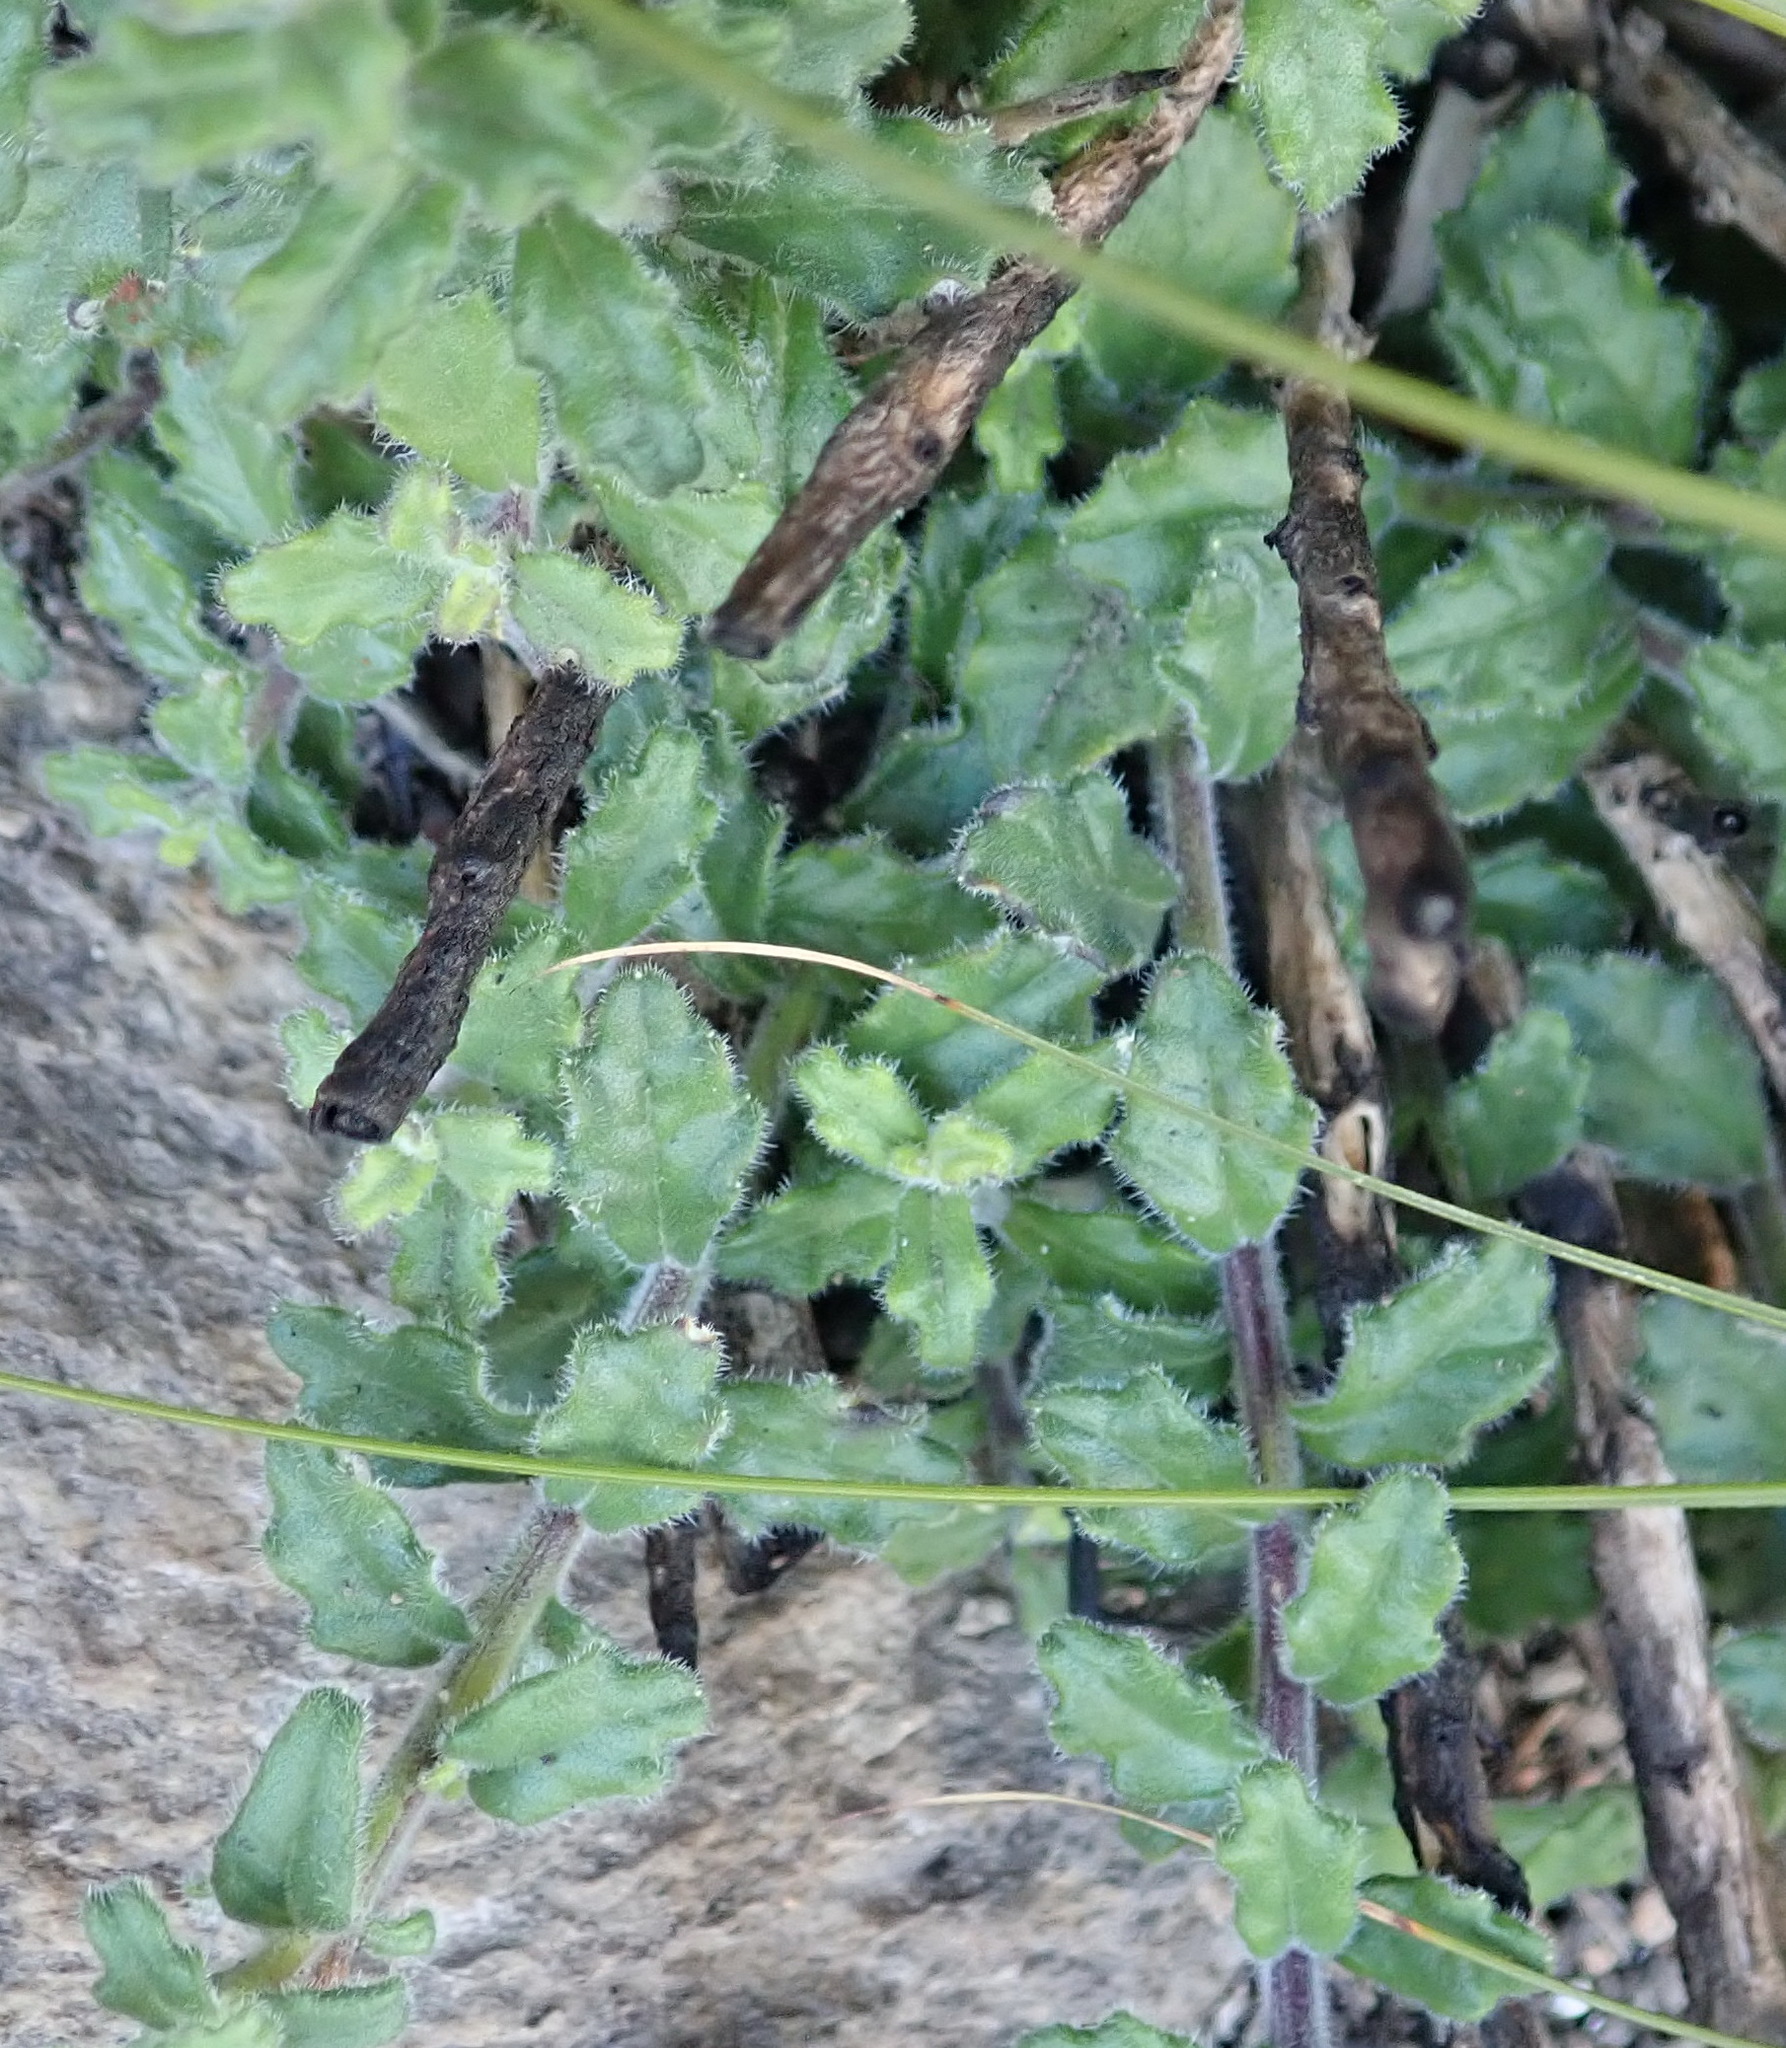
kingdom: Plantae
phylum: Tracheophyta
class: Magnoliopsida
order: Asterales
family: Campanulaceae
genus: Lobelia
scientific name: Lobelia dichroma
